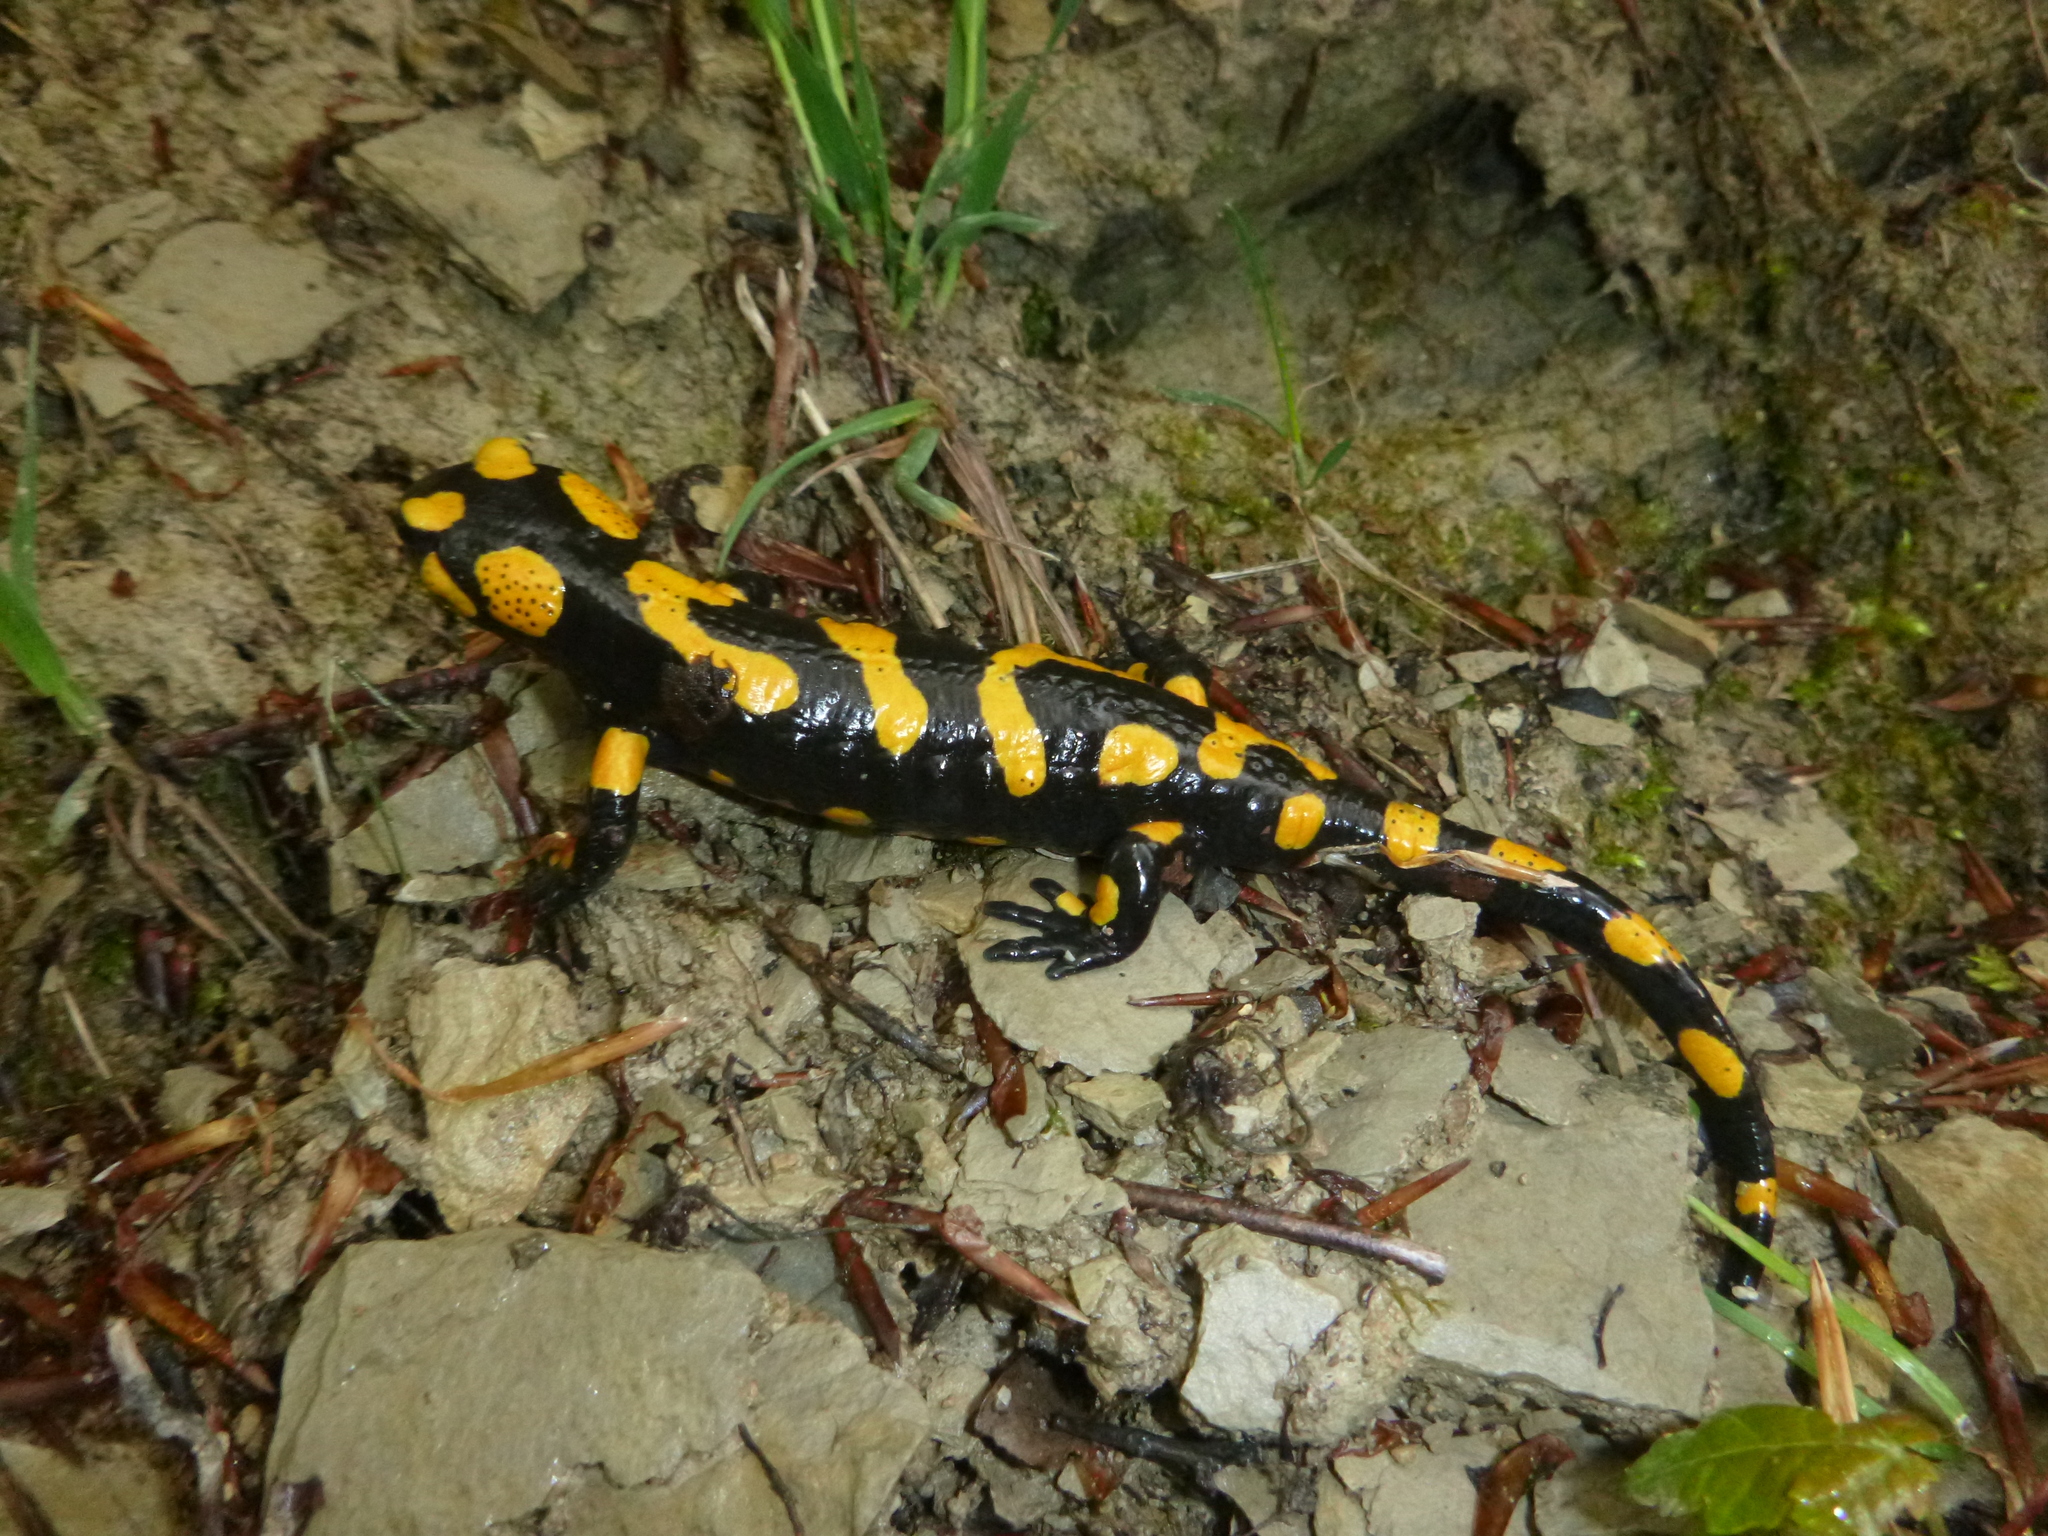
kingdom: Animalia
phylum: Chordata
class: Amphibia
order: Caudata
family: Salamandridae
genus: Salamandra
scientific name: Salamandra salamandra
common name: Fire salamander
